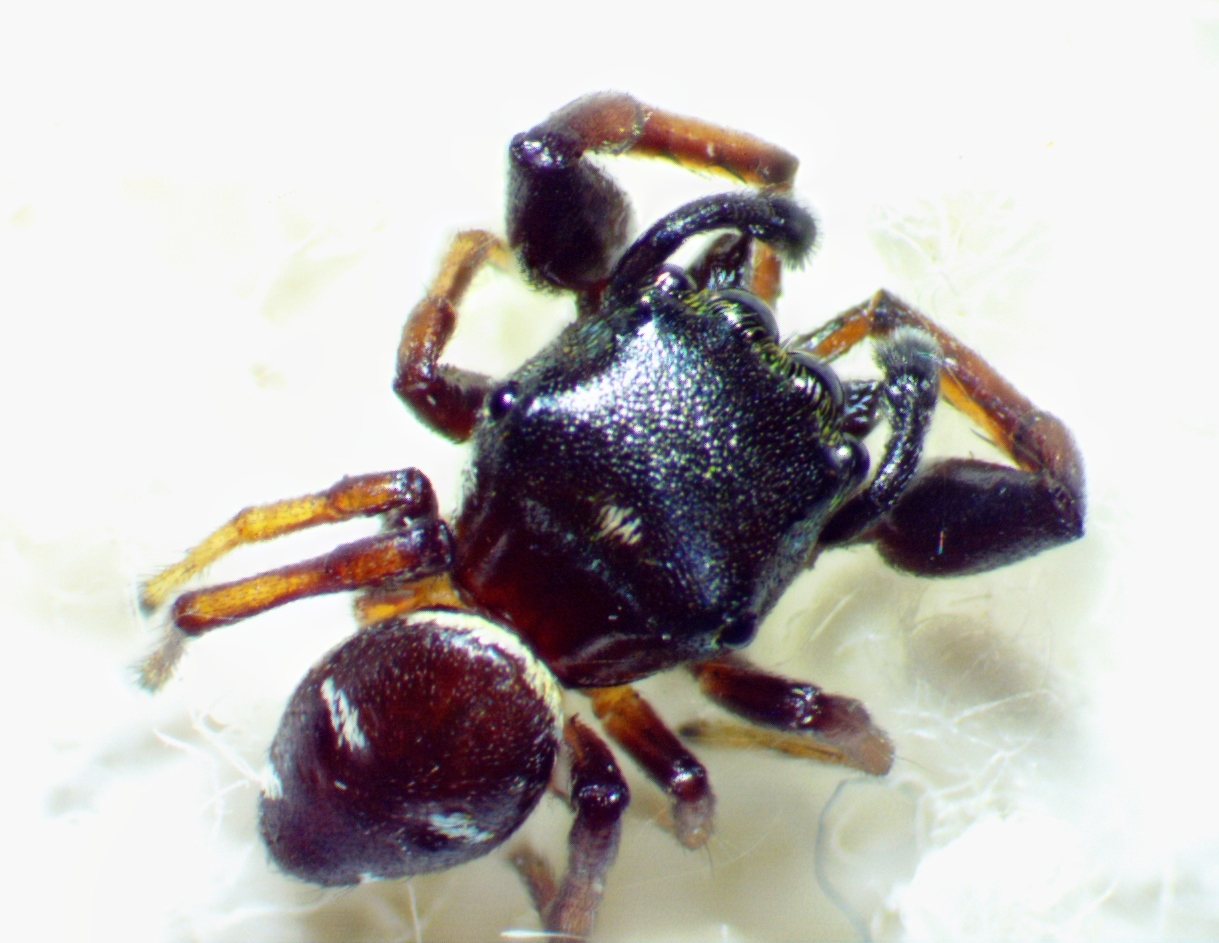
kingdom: Animalia
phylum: Arthropoda
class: Arachnida
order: Araneae
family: Salticidae
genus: Zygoballus
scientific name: Zygoballus sexpunctatus
